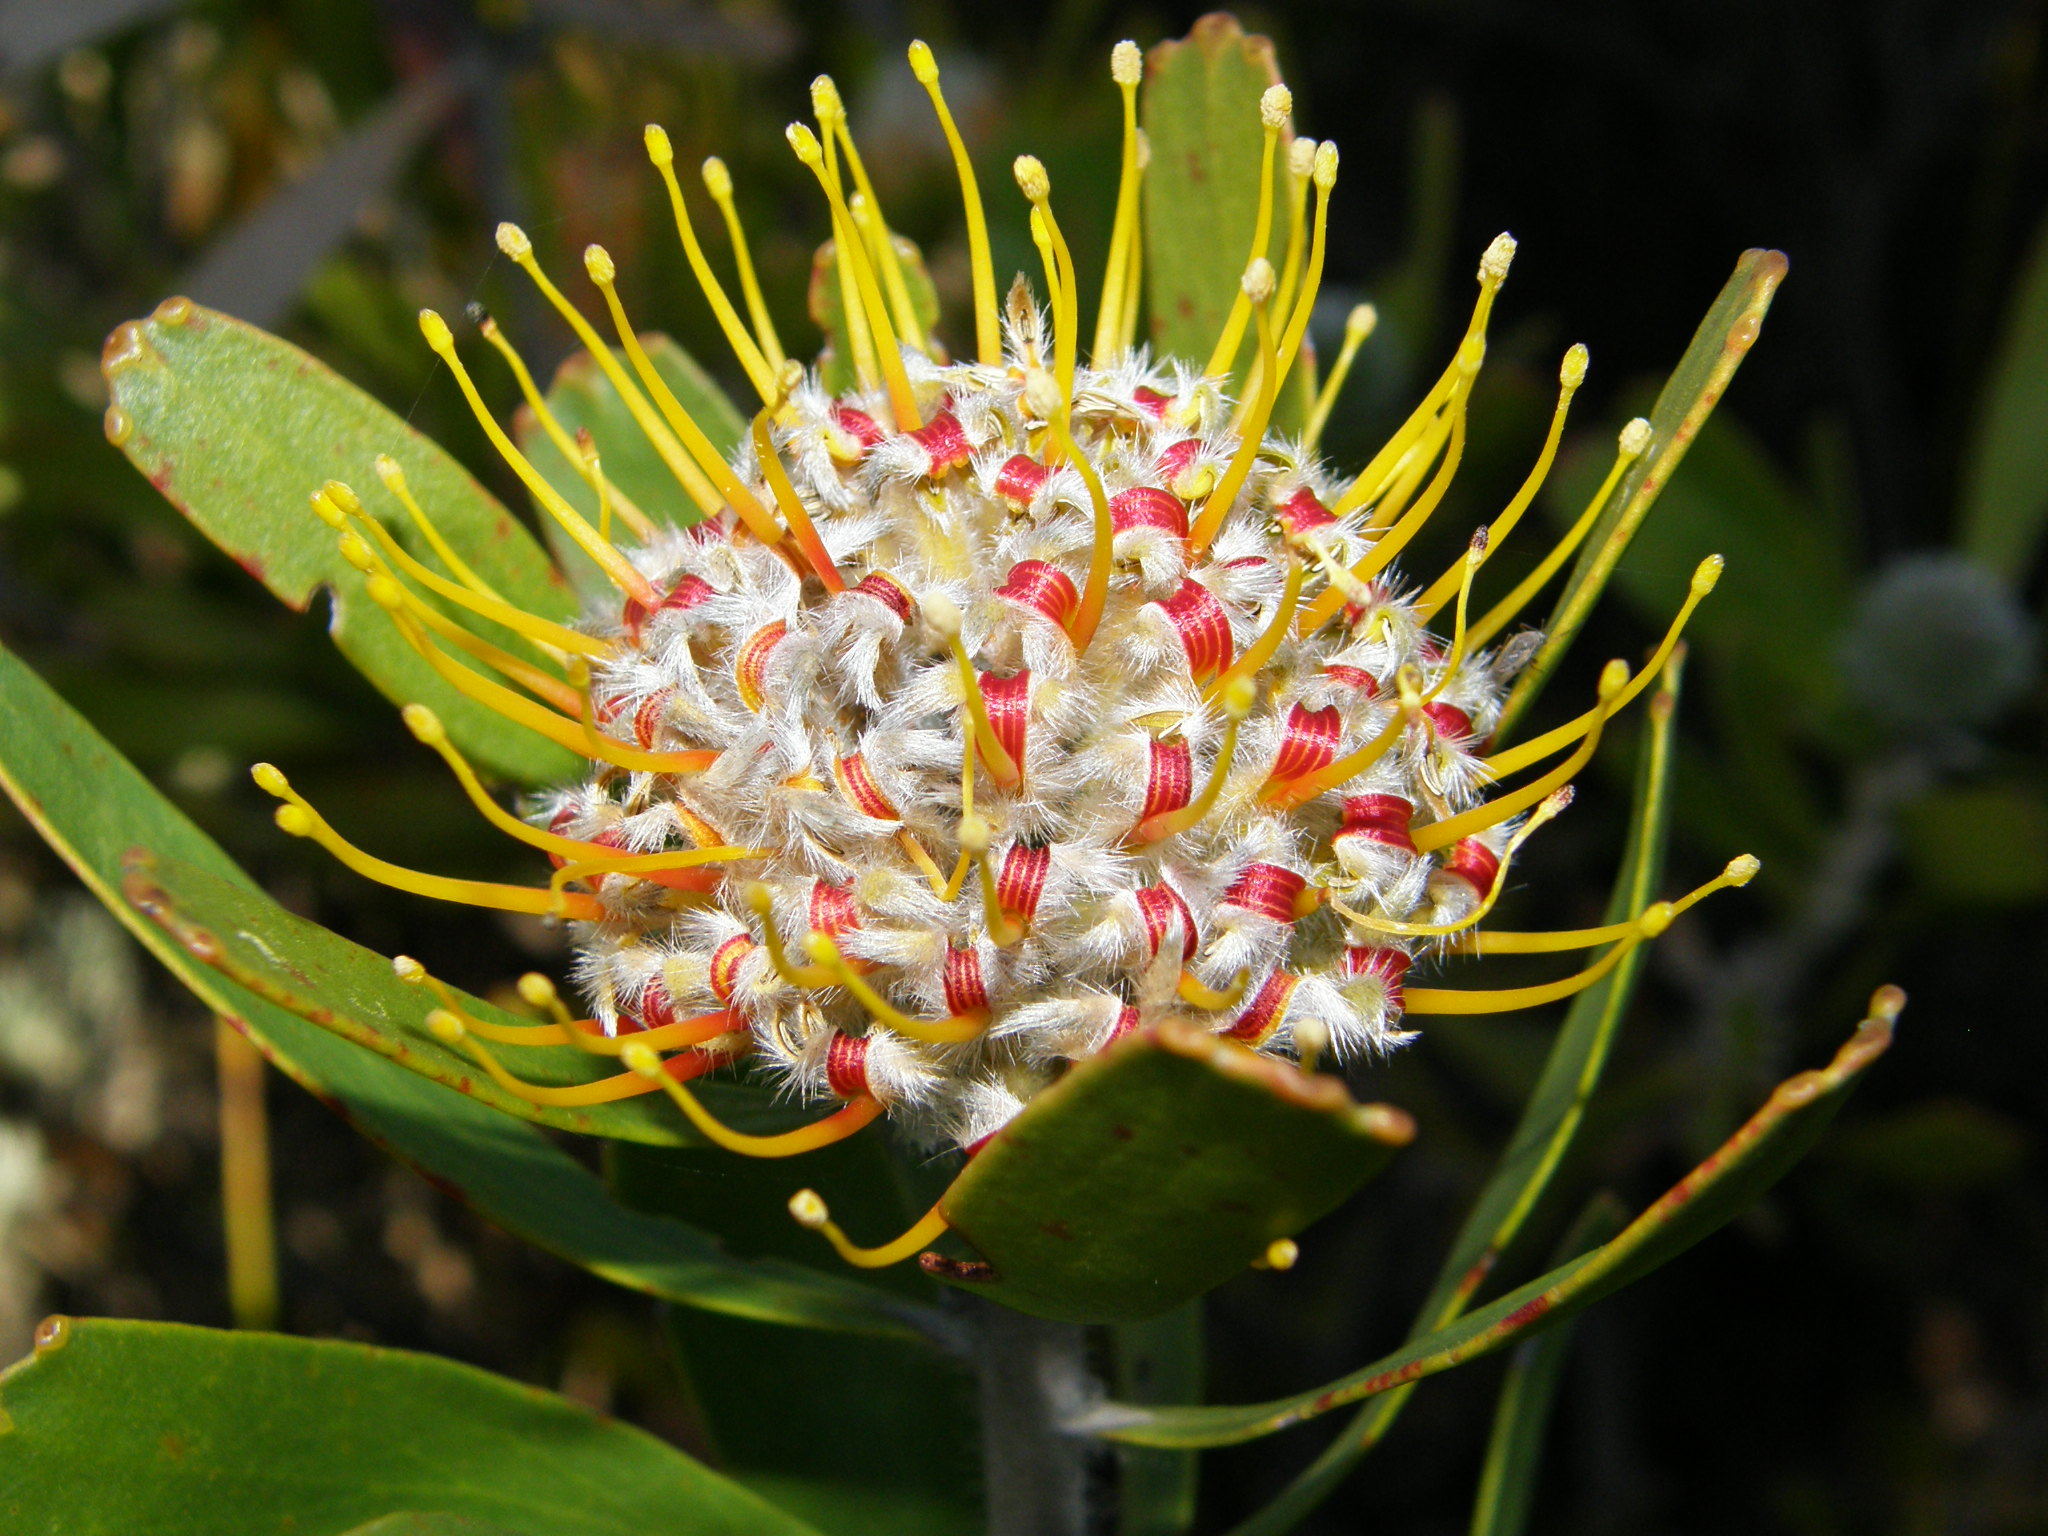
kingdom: Plantae
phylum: Tracheophyta
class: Magnoliopsida
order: Proteales
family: Proteaceae
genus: Leucospermum
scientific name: Leucospermum truncatum
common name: Limestone pincushion
